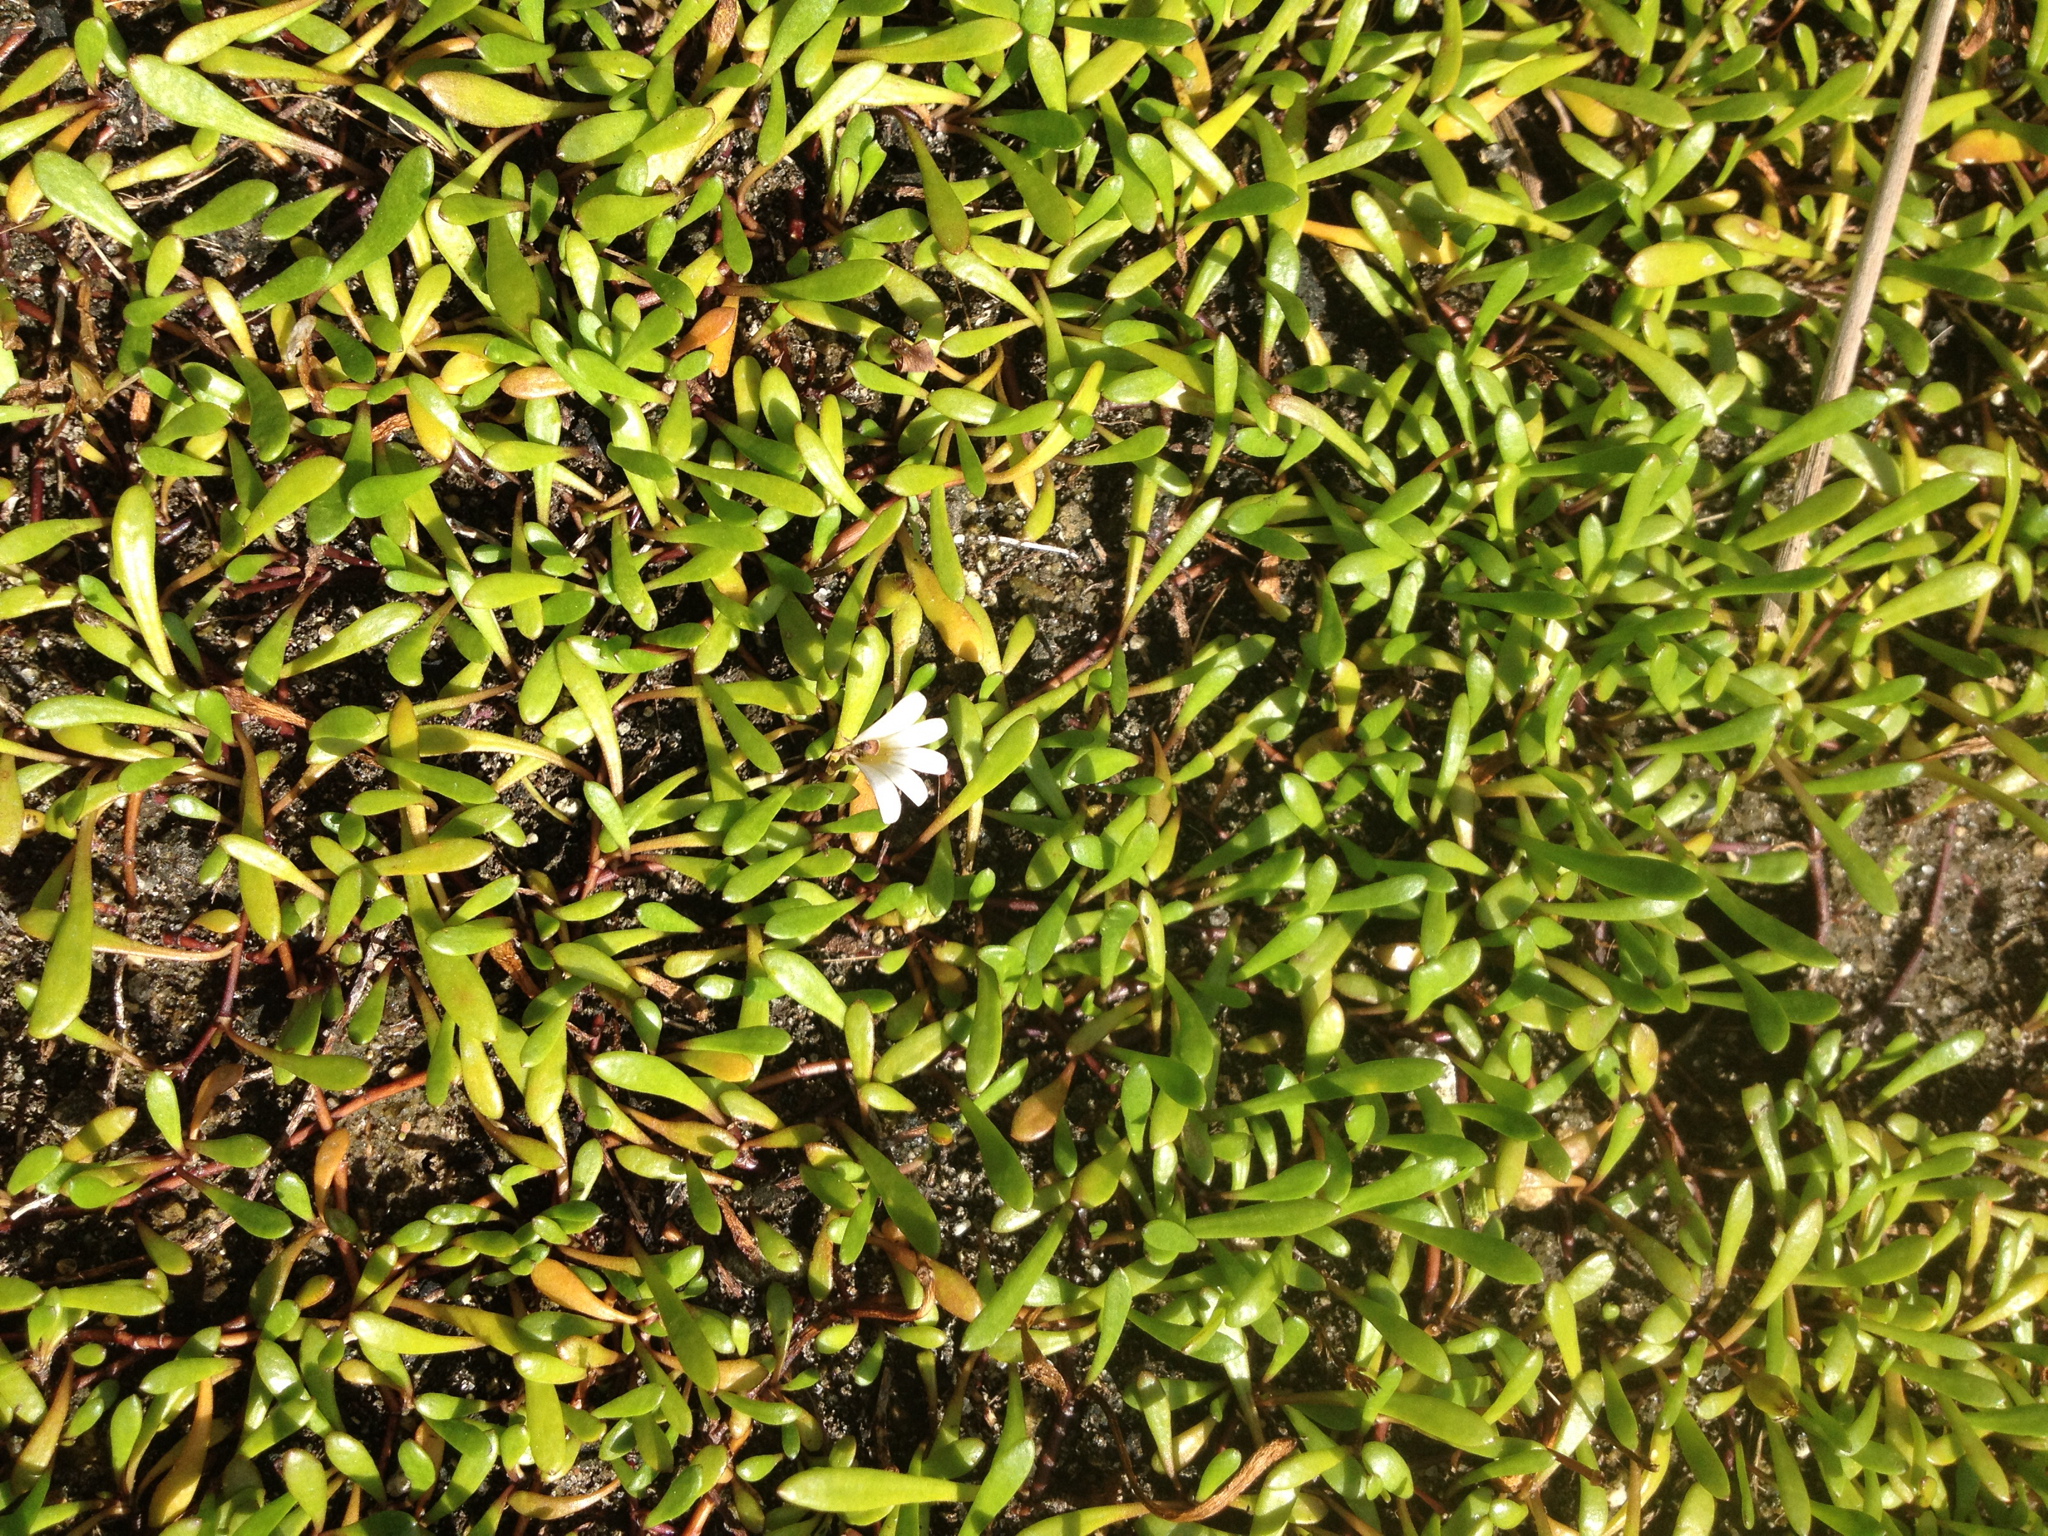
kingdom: Plantae
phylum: Tracheophyta
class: Magnoliopsida
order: Asterales
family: Goodeniaceae
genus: Goodenia
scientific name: Goodenia radicans
